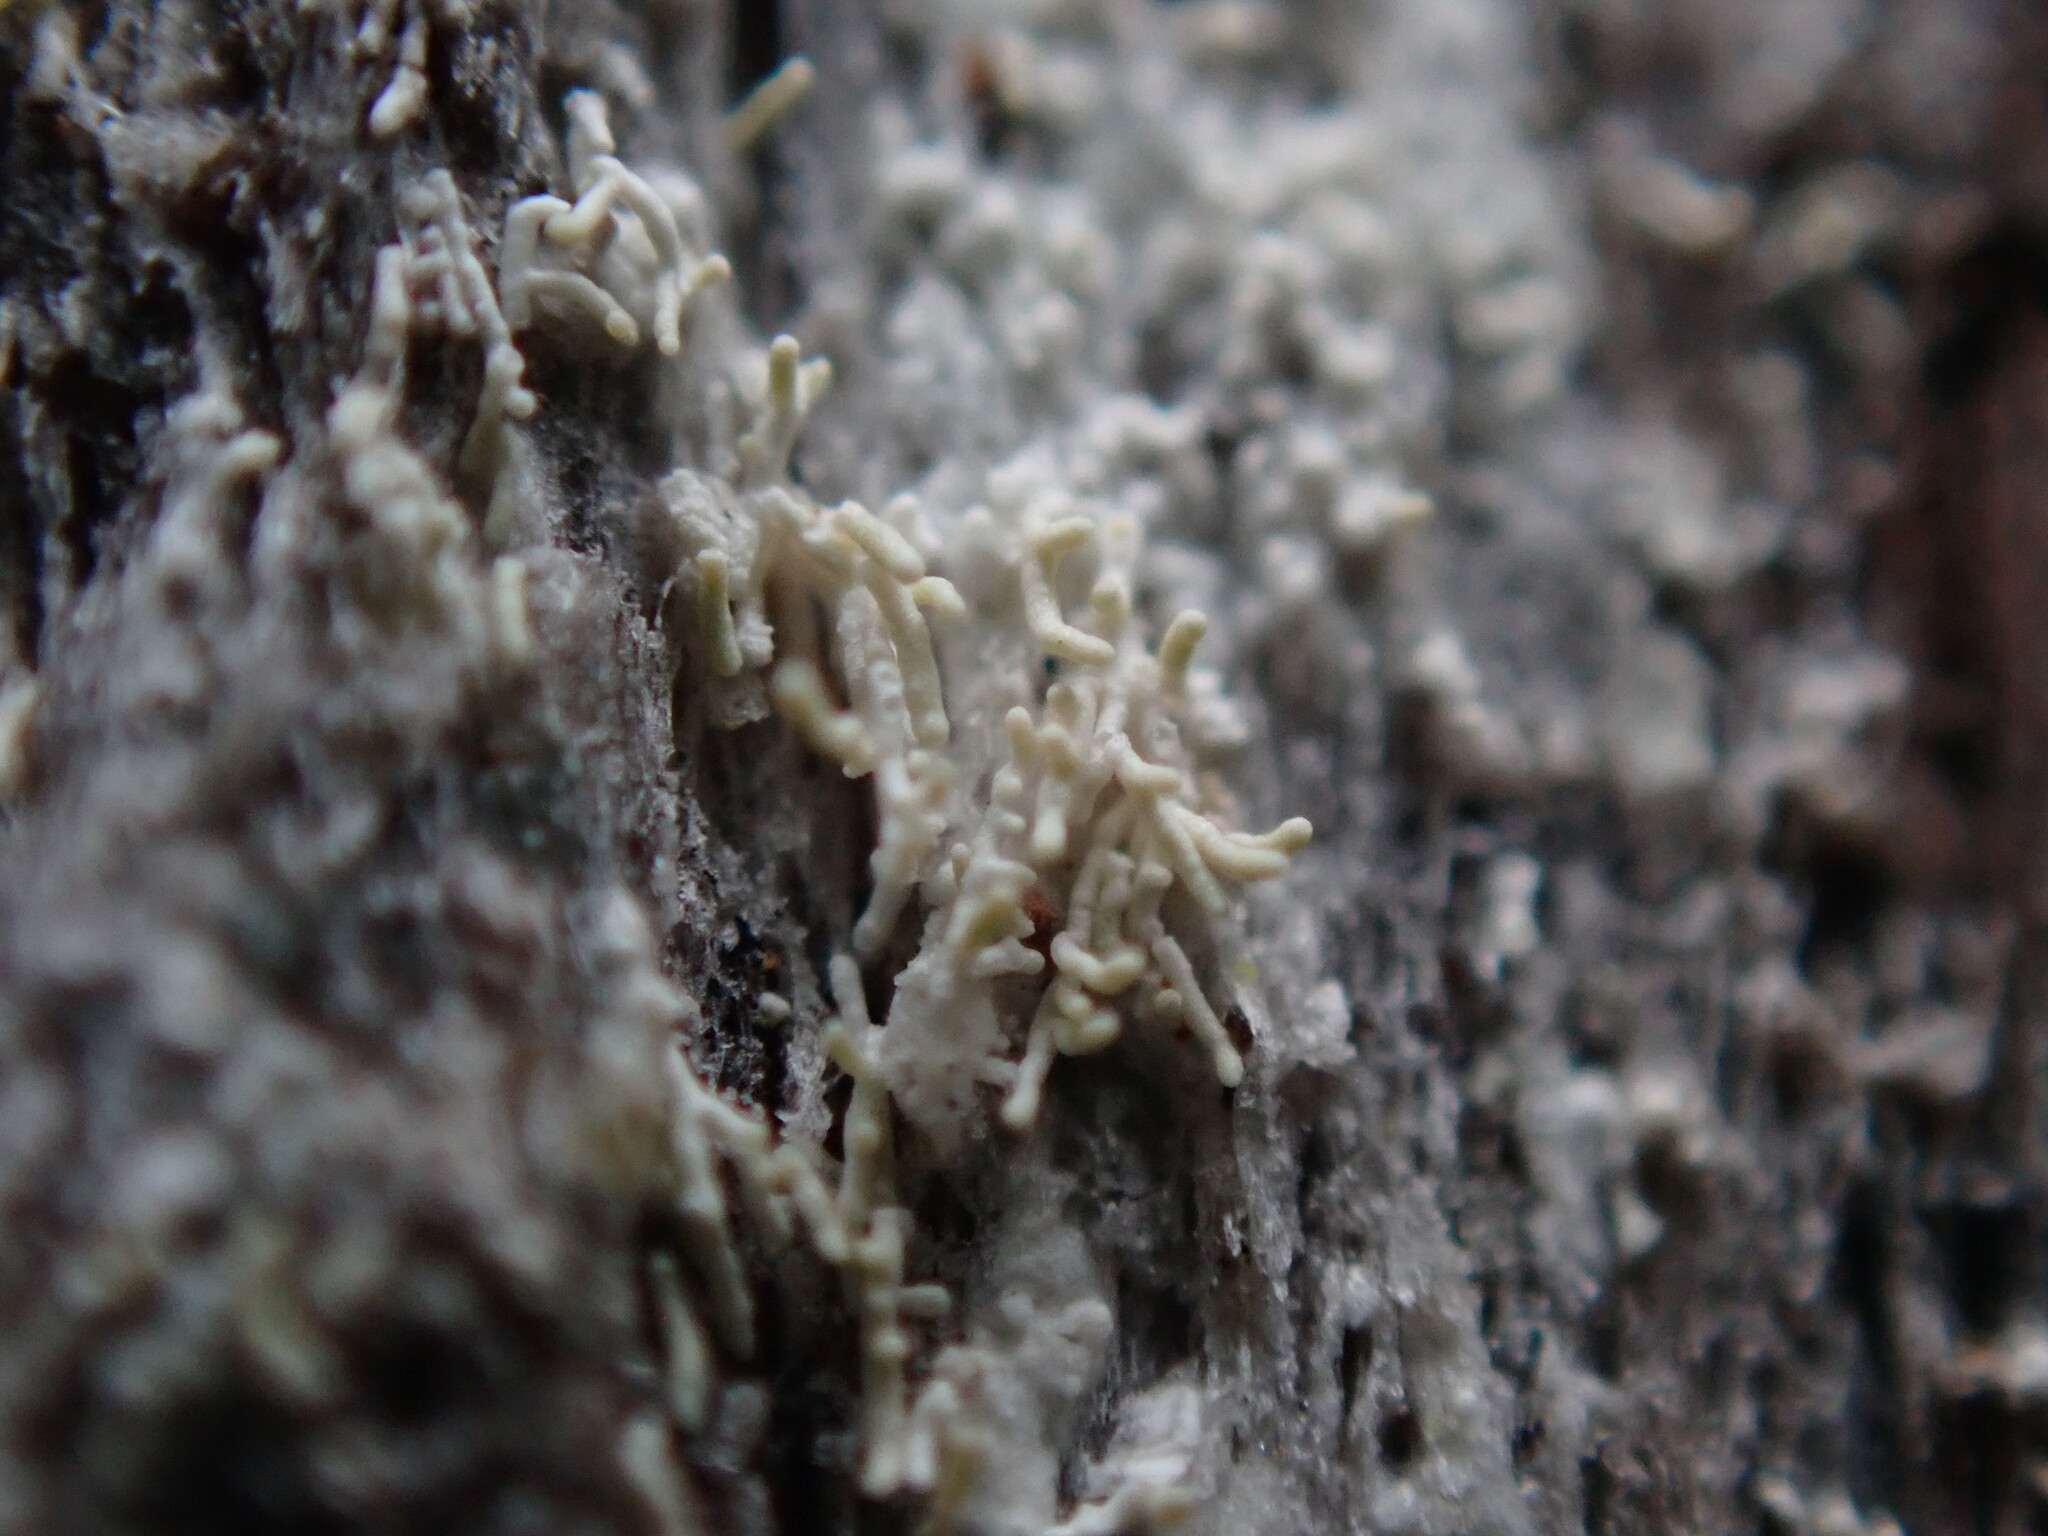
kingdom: Fungi
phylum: Ascomycota
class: Lecanoromycetes
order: Pertusariales
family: Pertusariaceae
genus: Loxosporopsis
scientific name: Loxosporopsis corallifera
